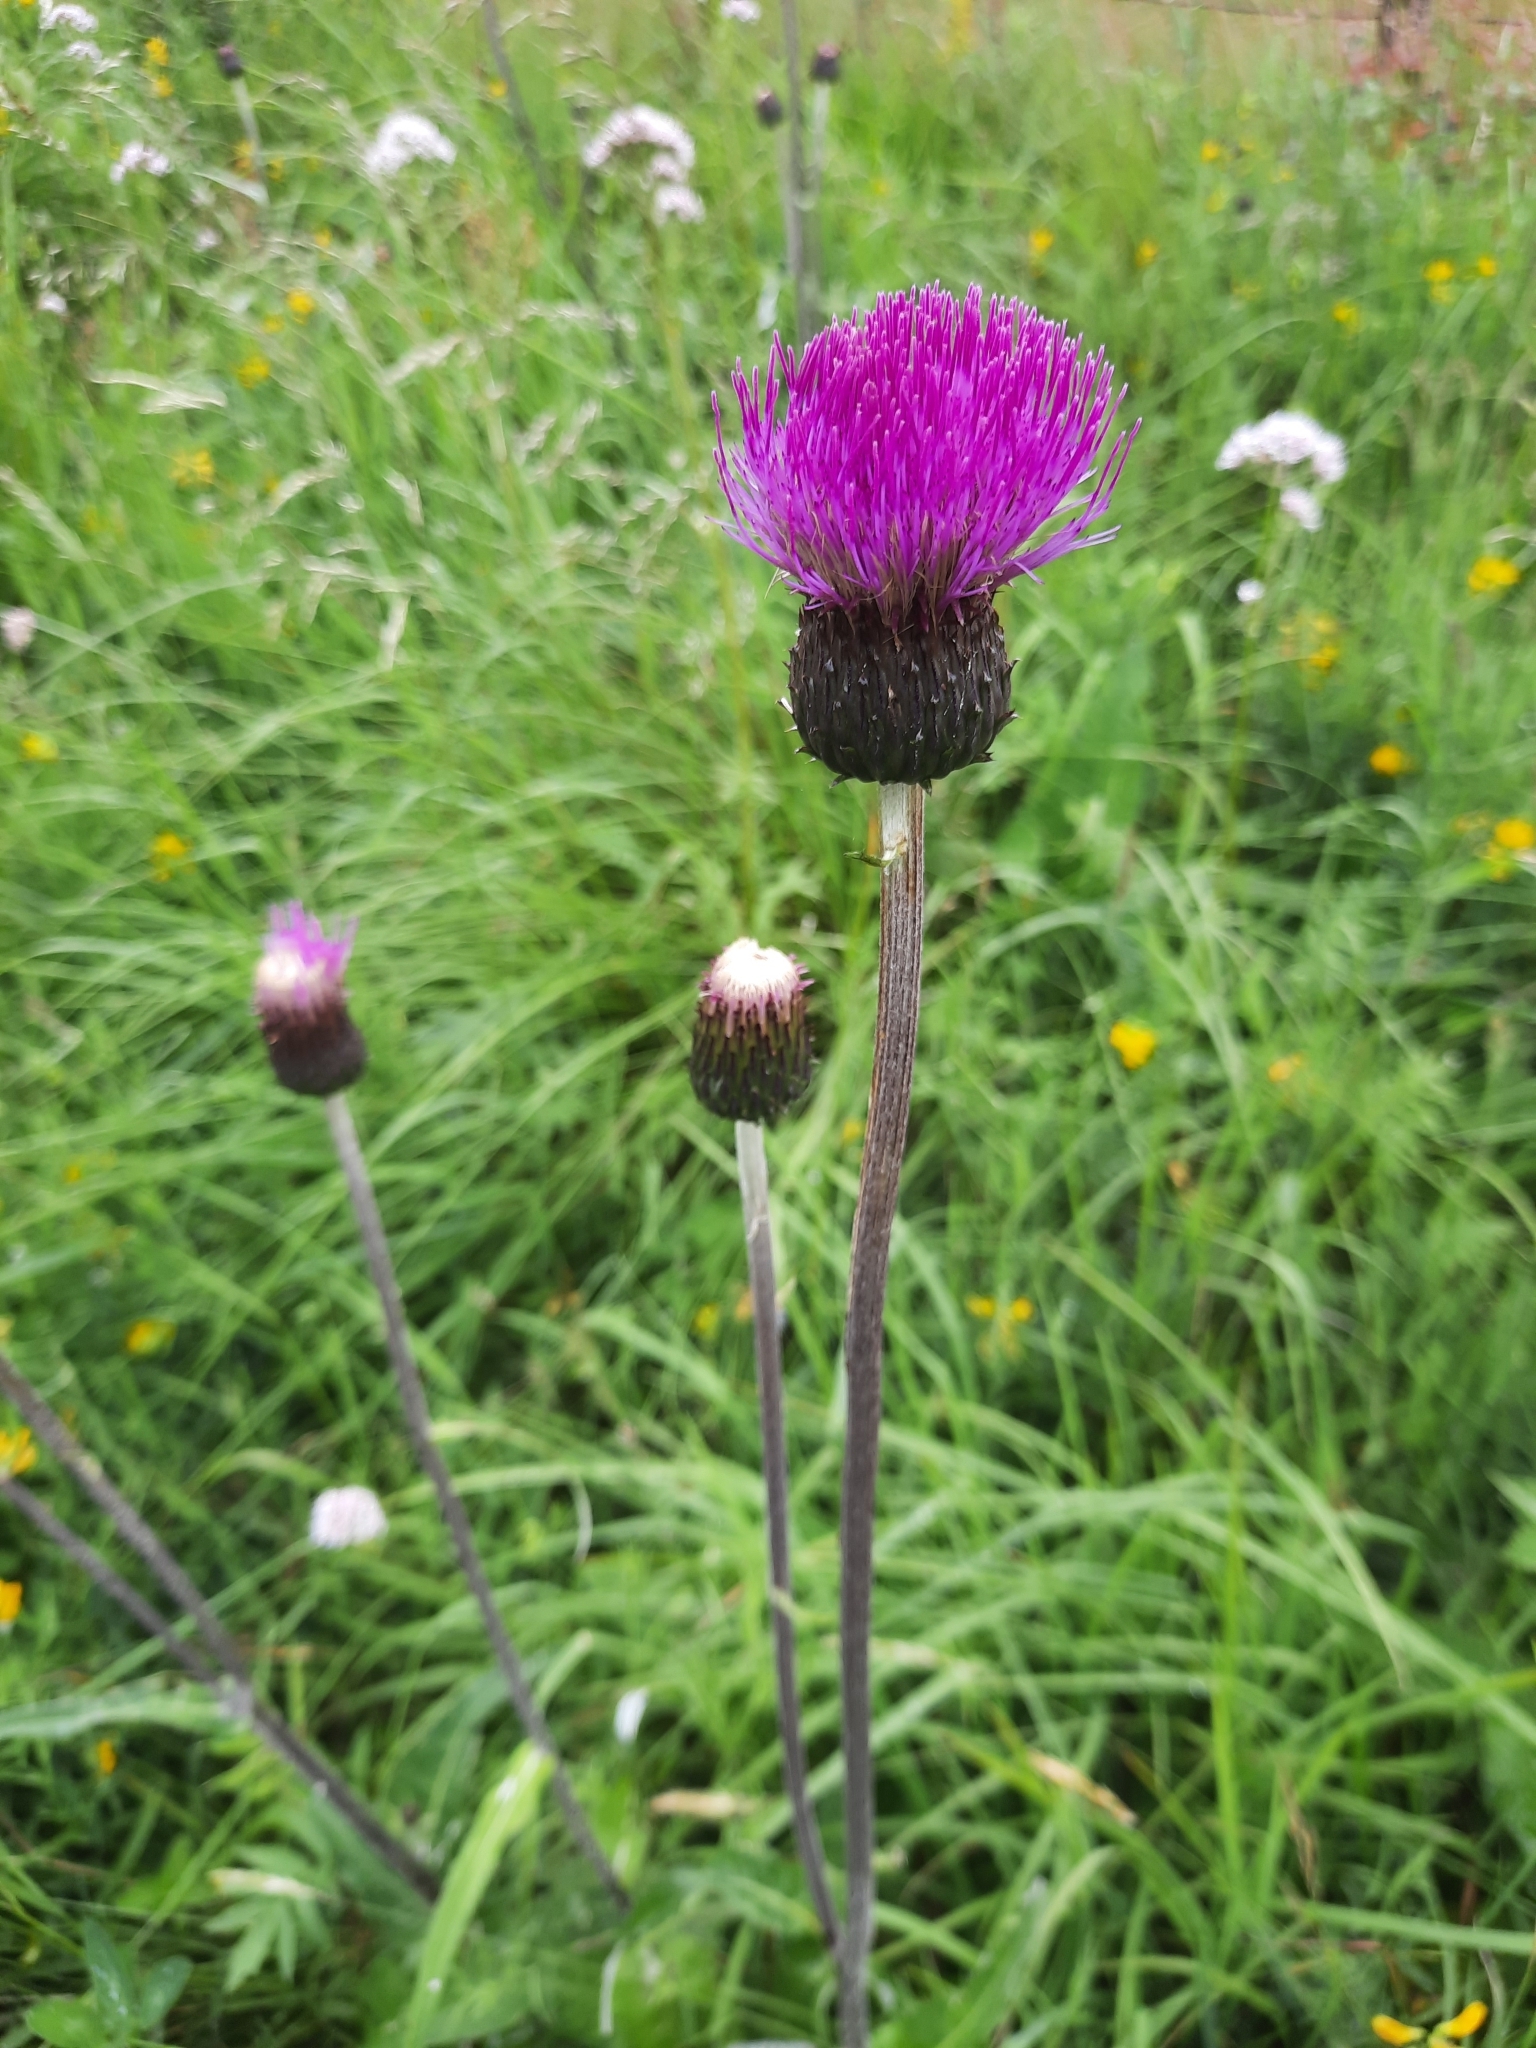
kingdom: Plantae
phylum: Tracheophyta
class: Magnoliopsida
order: Asterales
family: Asteraceae
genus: Cirsium
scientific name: Cirsium heterophyllum
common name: Melancholy thistle
